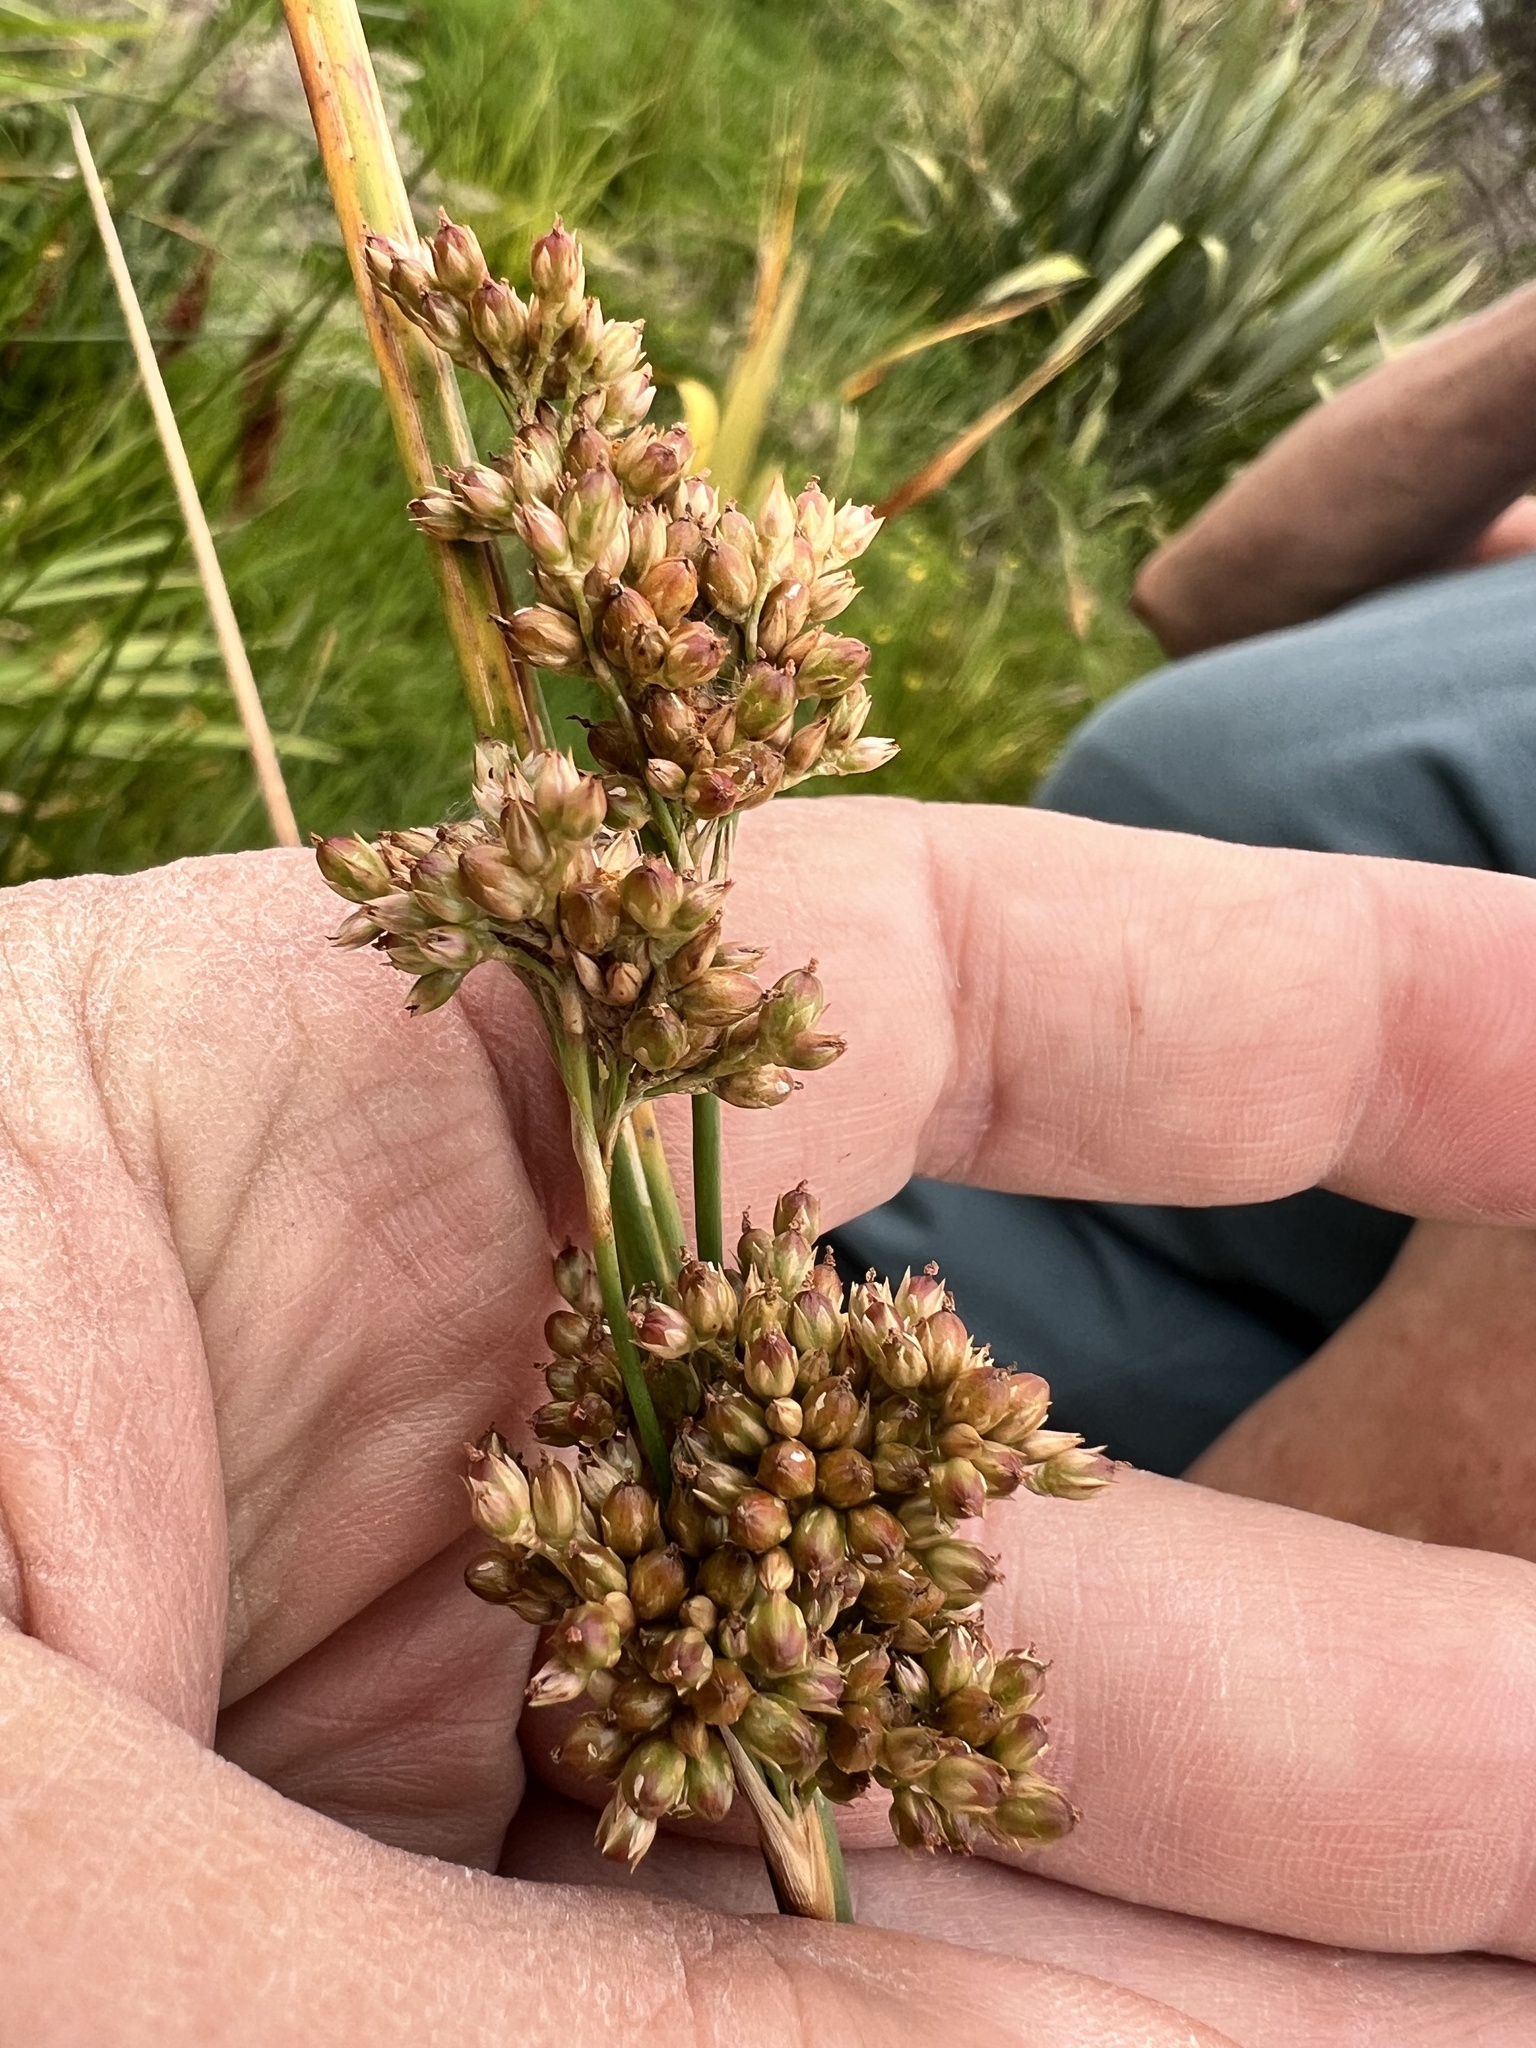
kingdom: Plantae
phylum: Tracheophyta
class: Liliopsida
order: Poales
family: Juncaceae
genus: Juncus
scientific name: Juncus pallidus
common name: Great soft-rush
